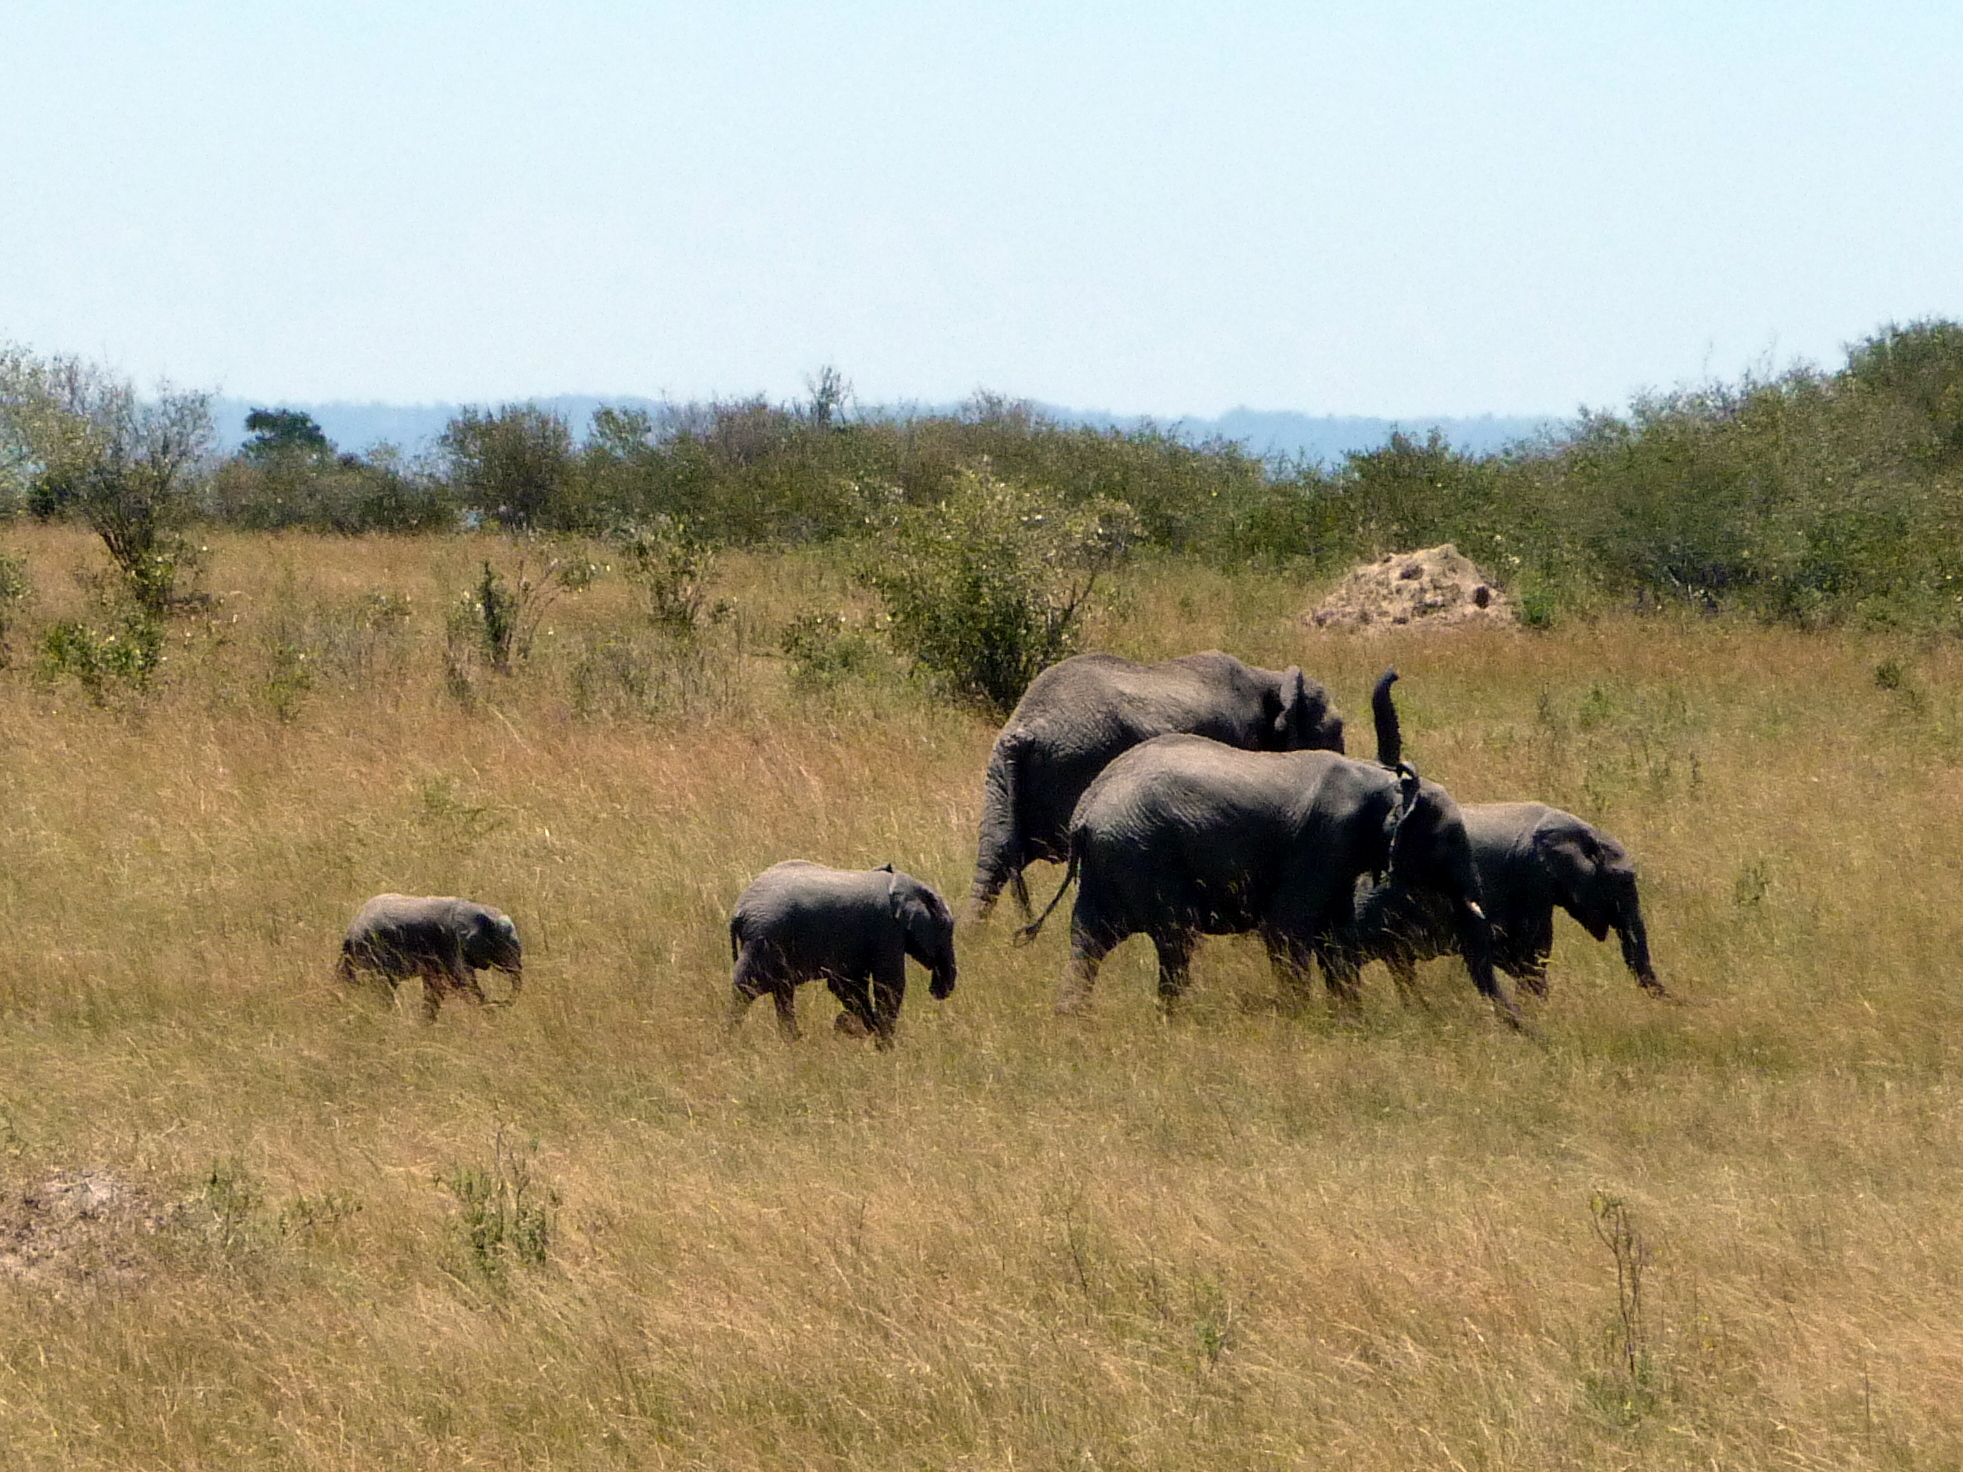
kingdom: Animalia
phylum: Chordata
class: Mammalia
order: Proboscidea
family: Elephantidae
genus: Loxodonta
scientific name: Loxodonta africana
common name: African elephant
